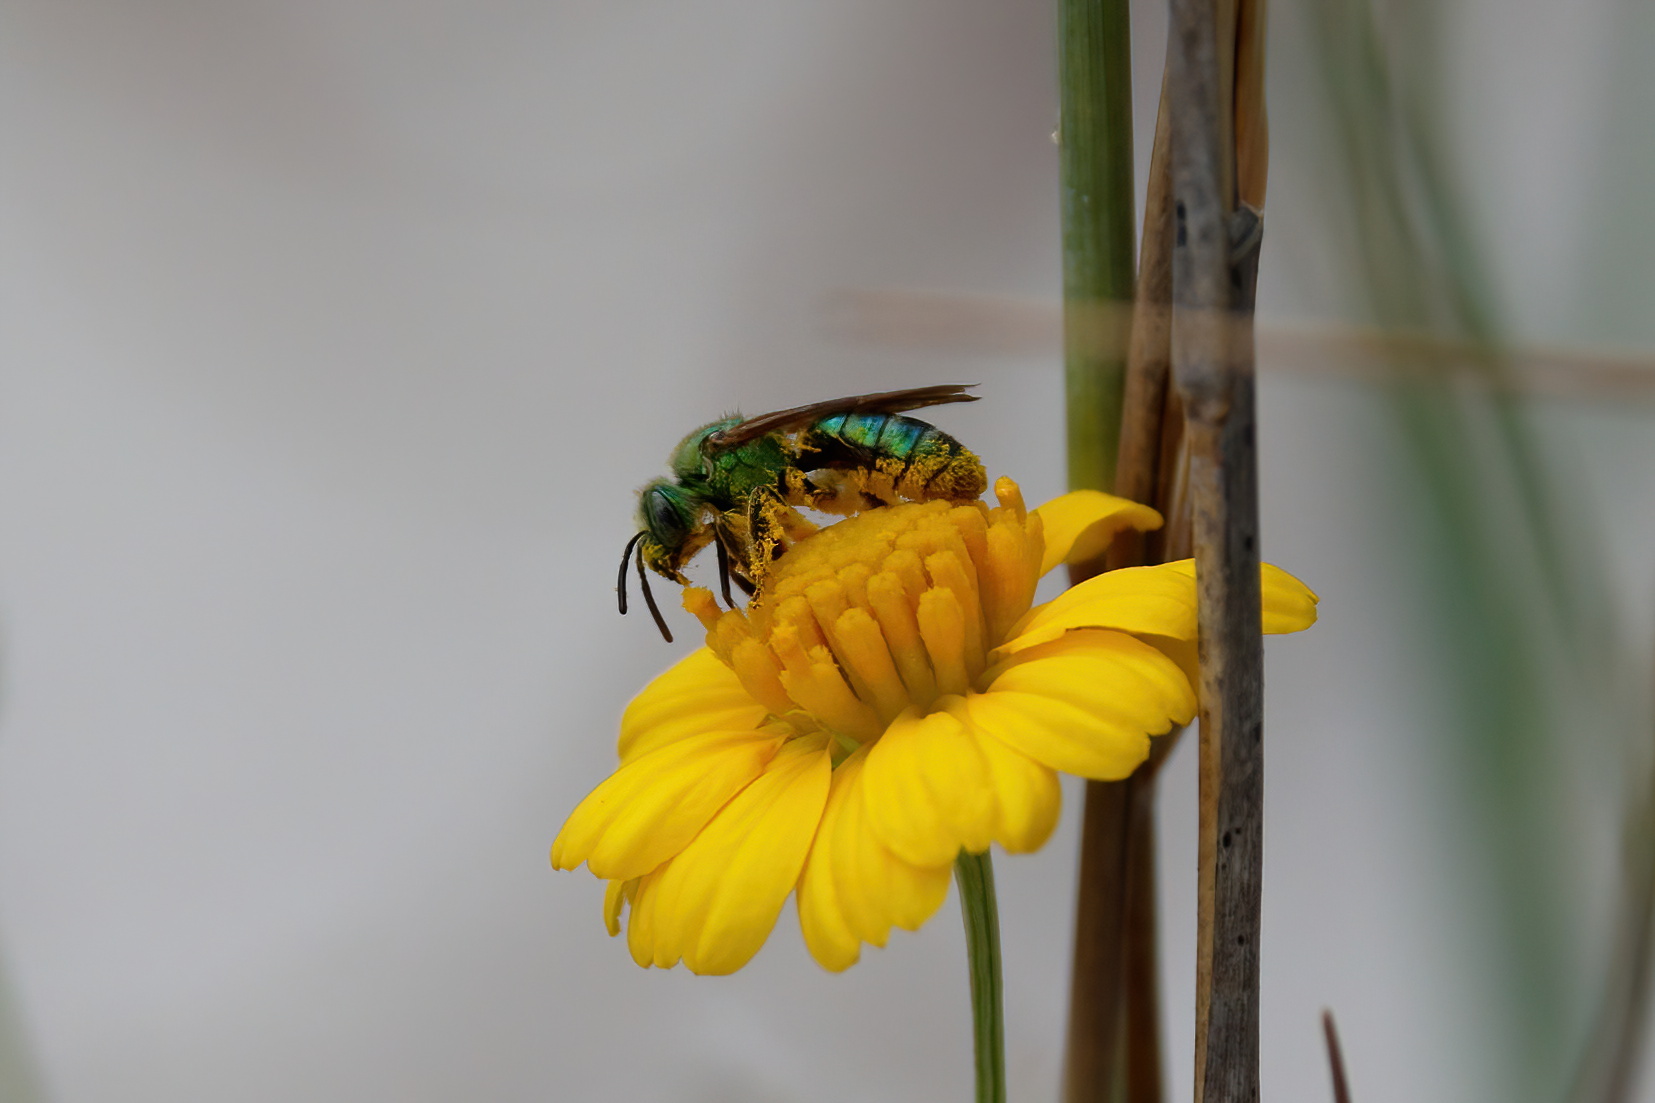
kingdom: Animalia
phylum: Arthropoda
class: Insecta
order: Hymenoptera
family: Halictidae
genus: Agapostemon
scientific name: Agapostemon splendens
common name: Brown-winged striped sweat bee
